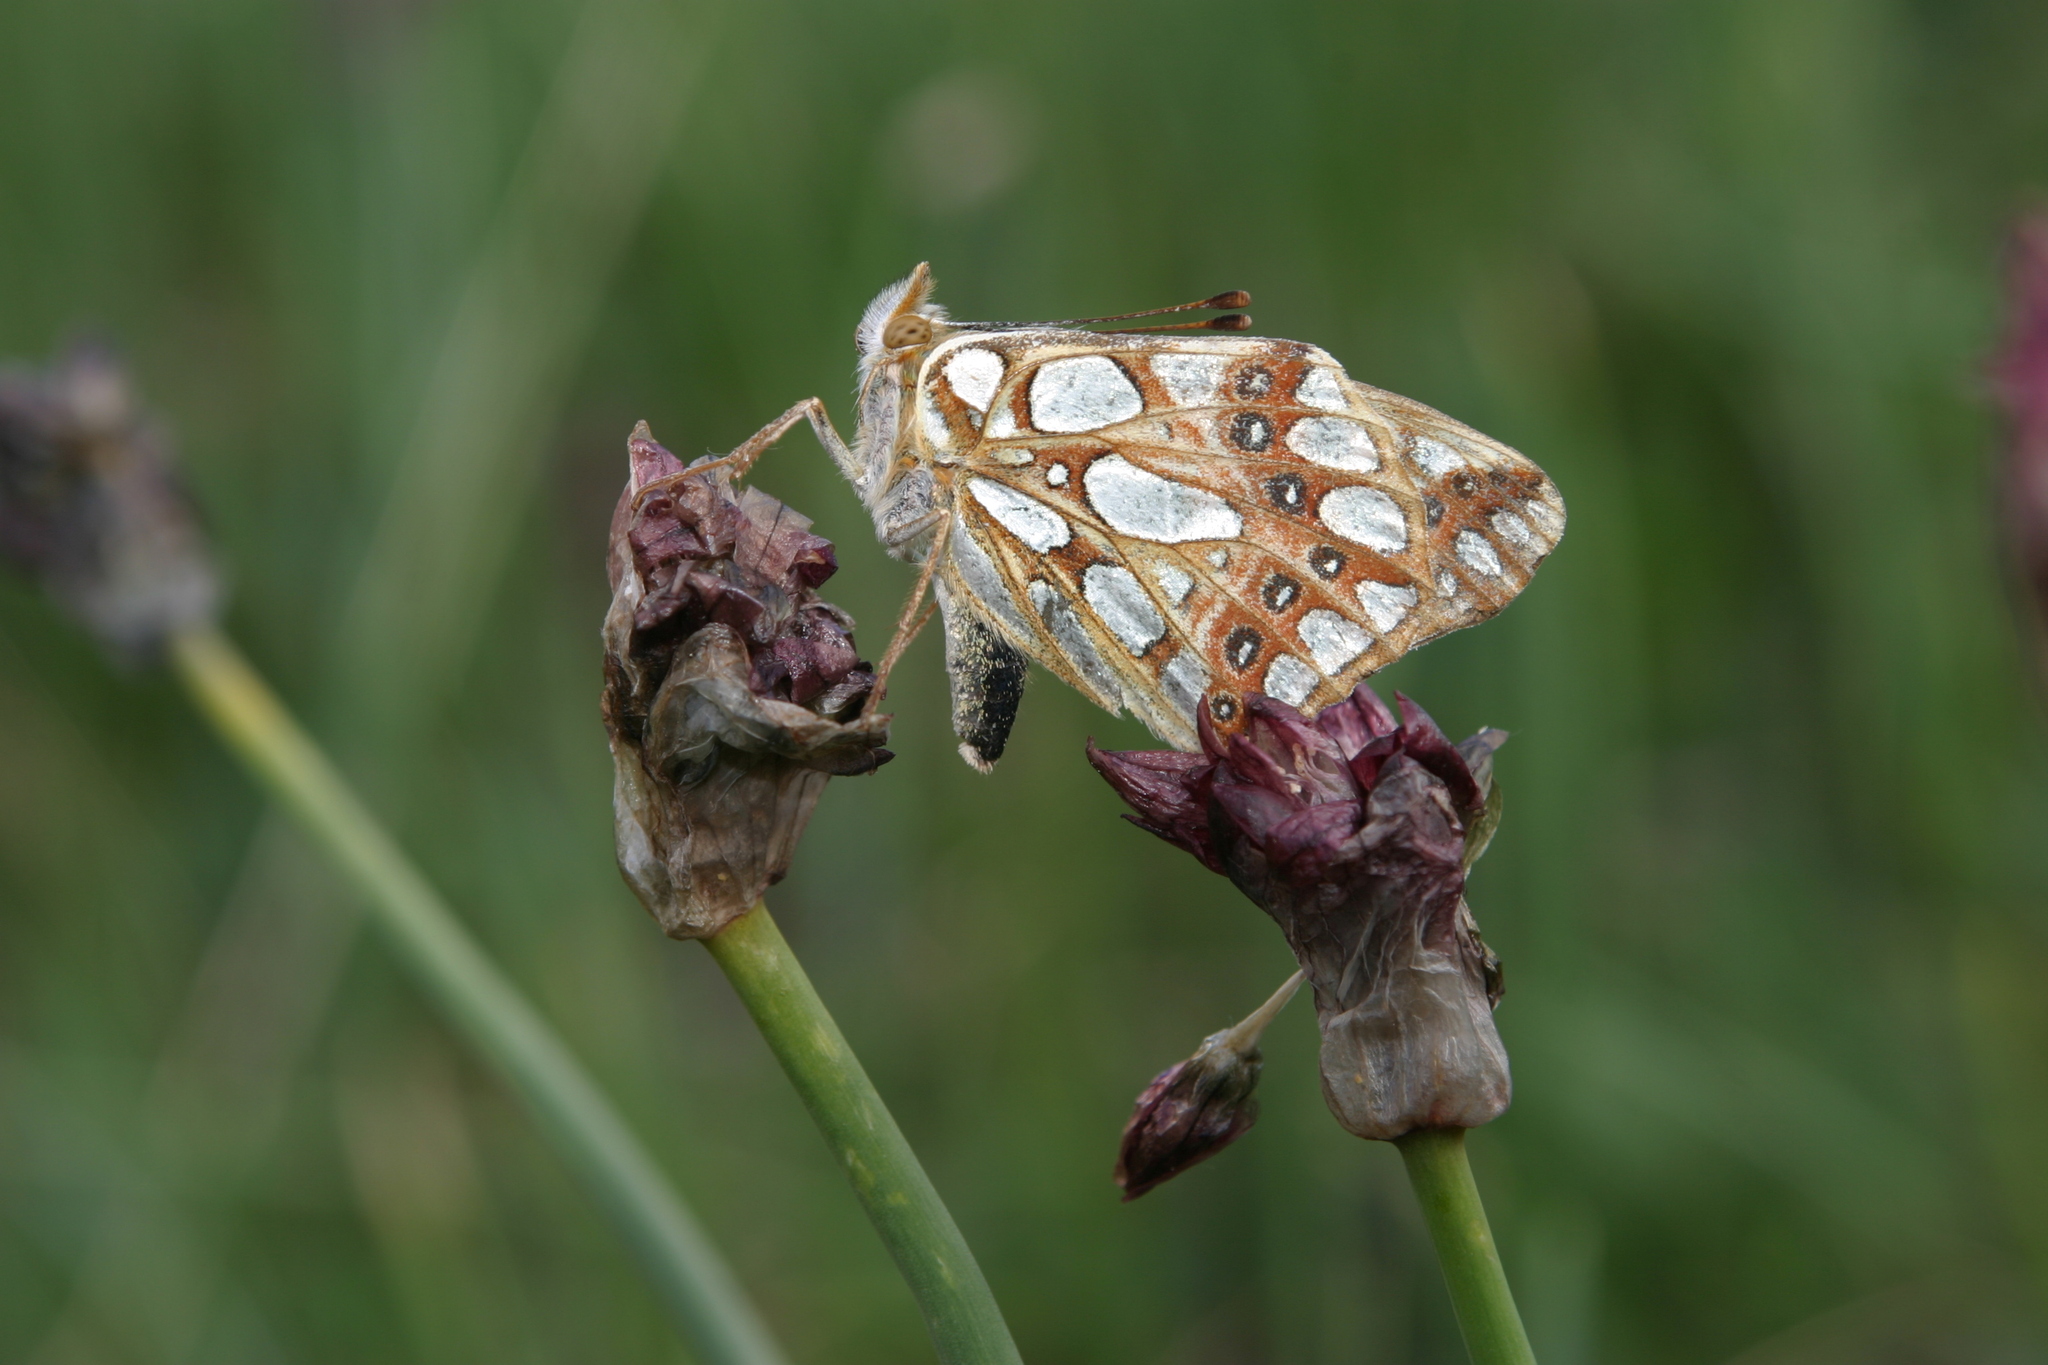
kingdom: Animalia
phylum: Arthropoda
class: Insecta
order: Lepidoptera
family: Nymphalidae
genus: Issoria
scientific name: Issoria lathonia
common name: Queen of spain fritillary
